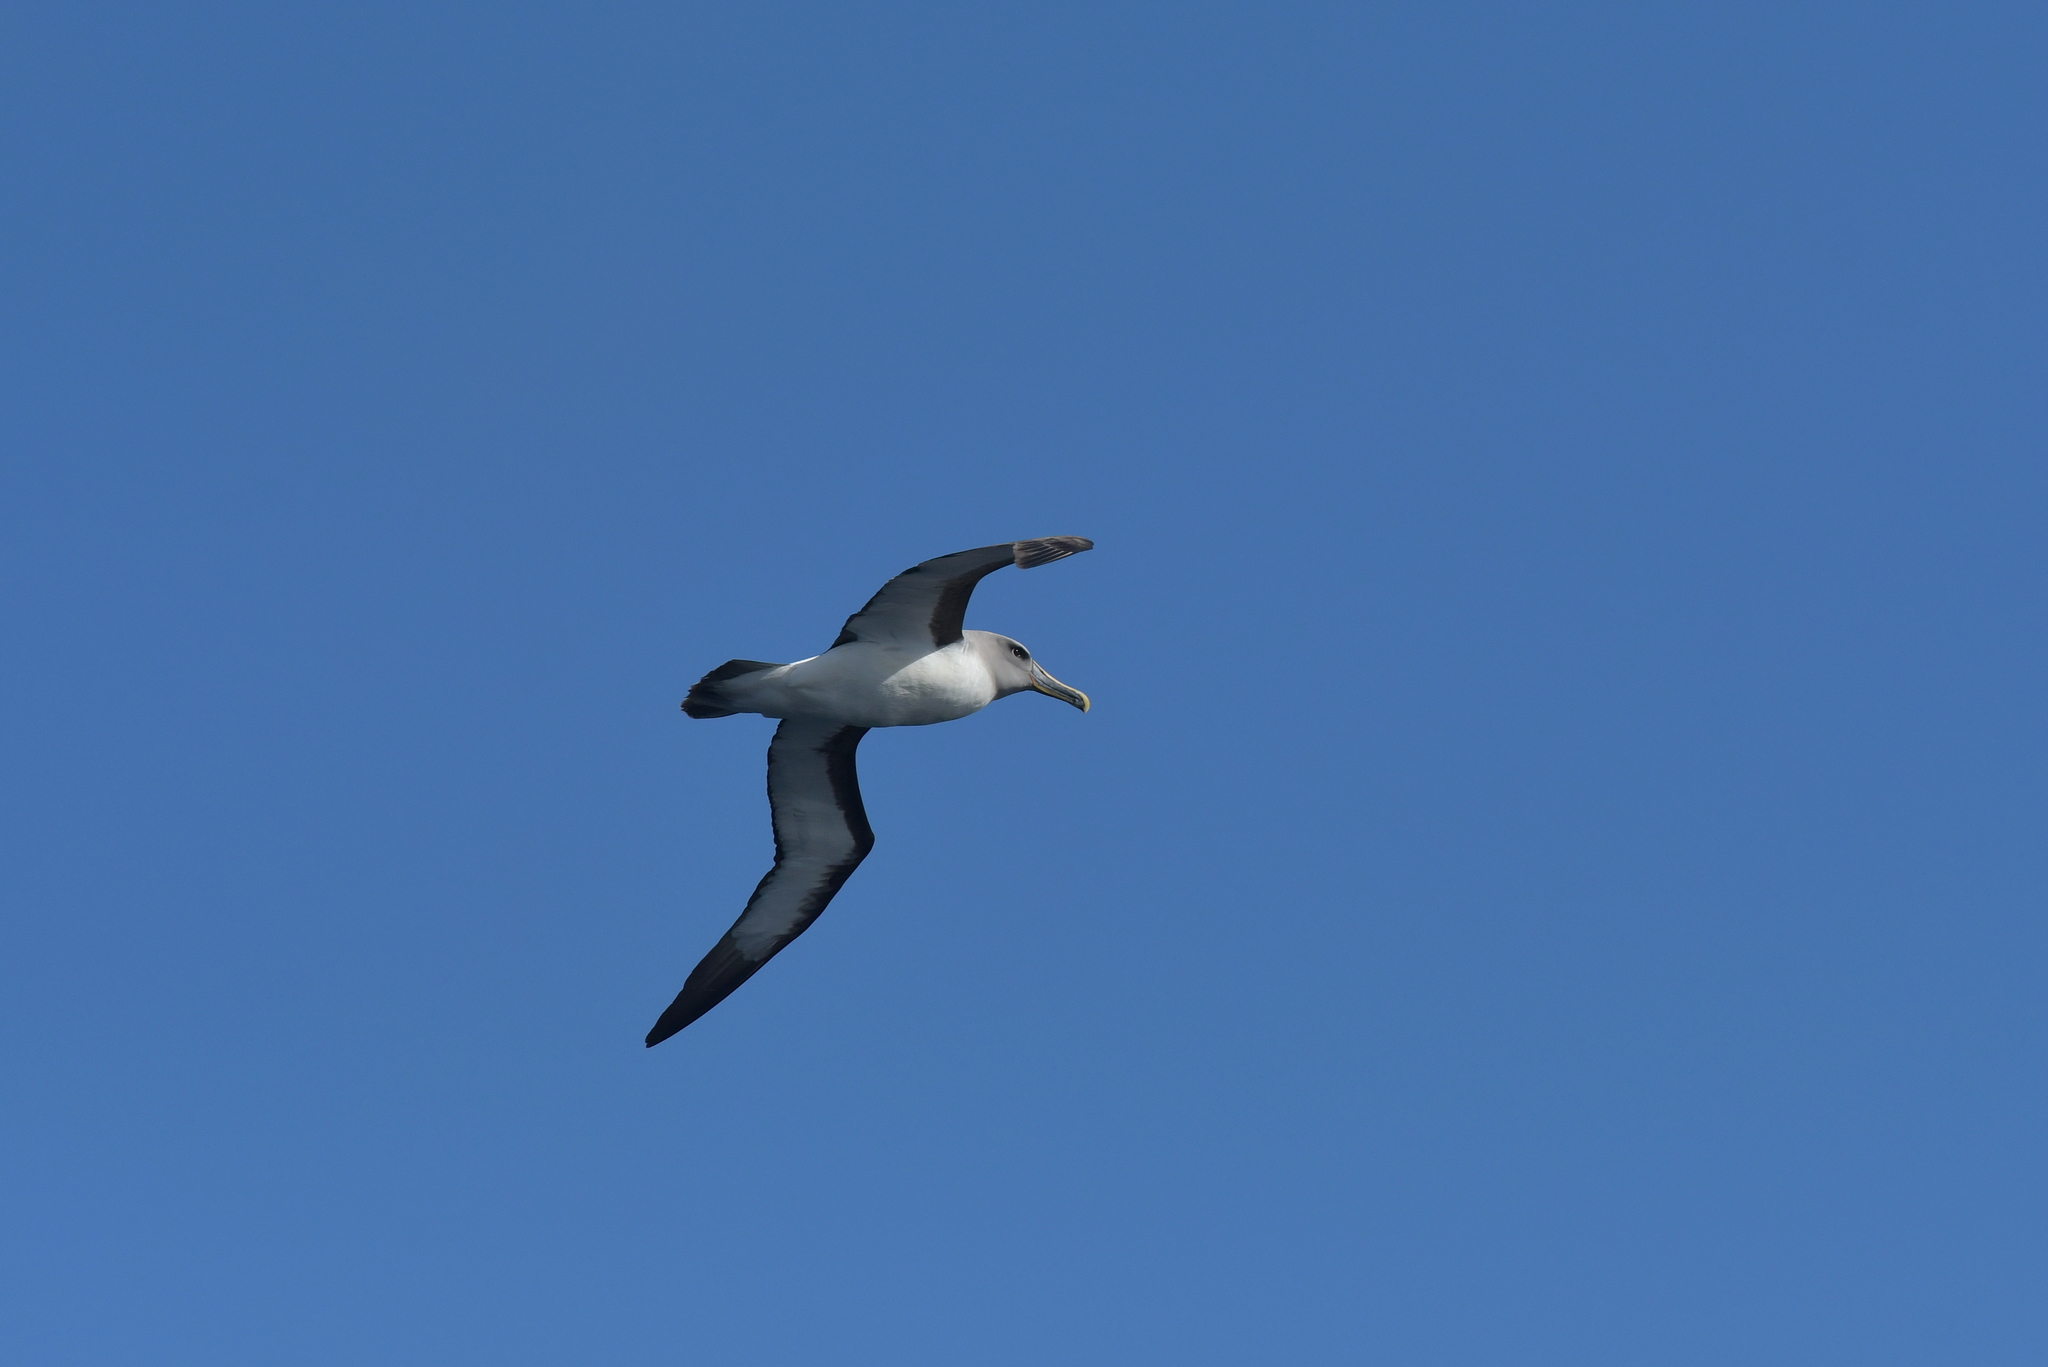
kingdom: Animalia
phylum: Chordata
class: Aves
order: Procellariiformes
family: Diomedeidae
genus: Thalassarche
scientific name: Thalassarche bulleri
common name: Buller's albatross
